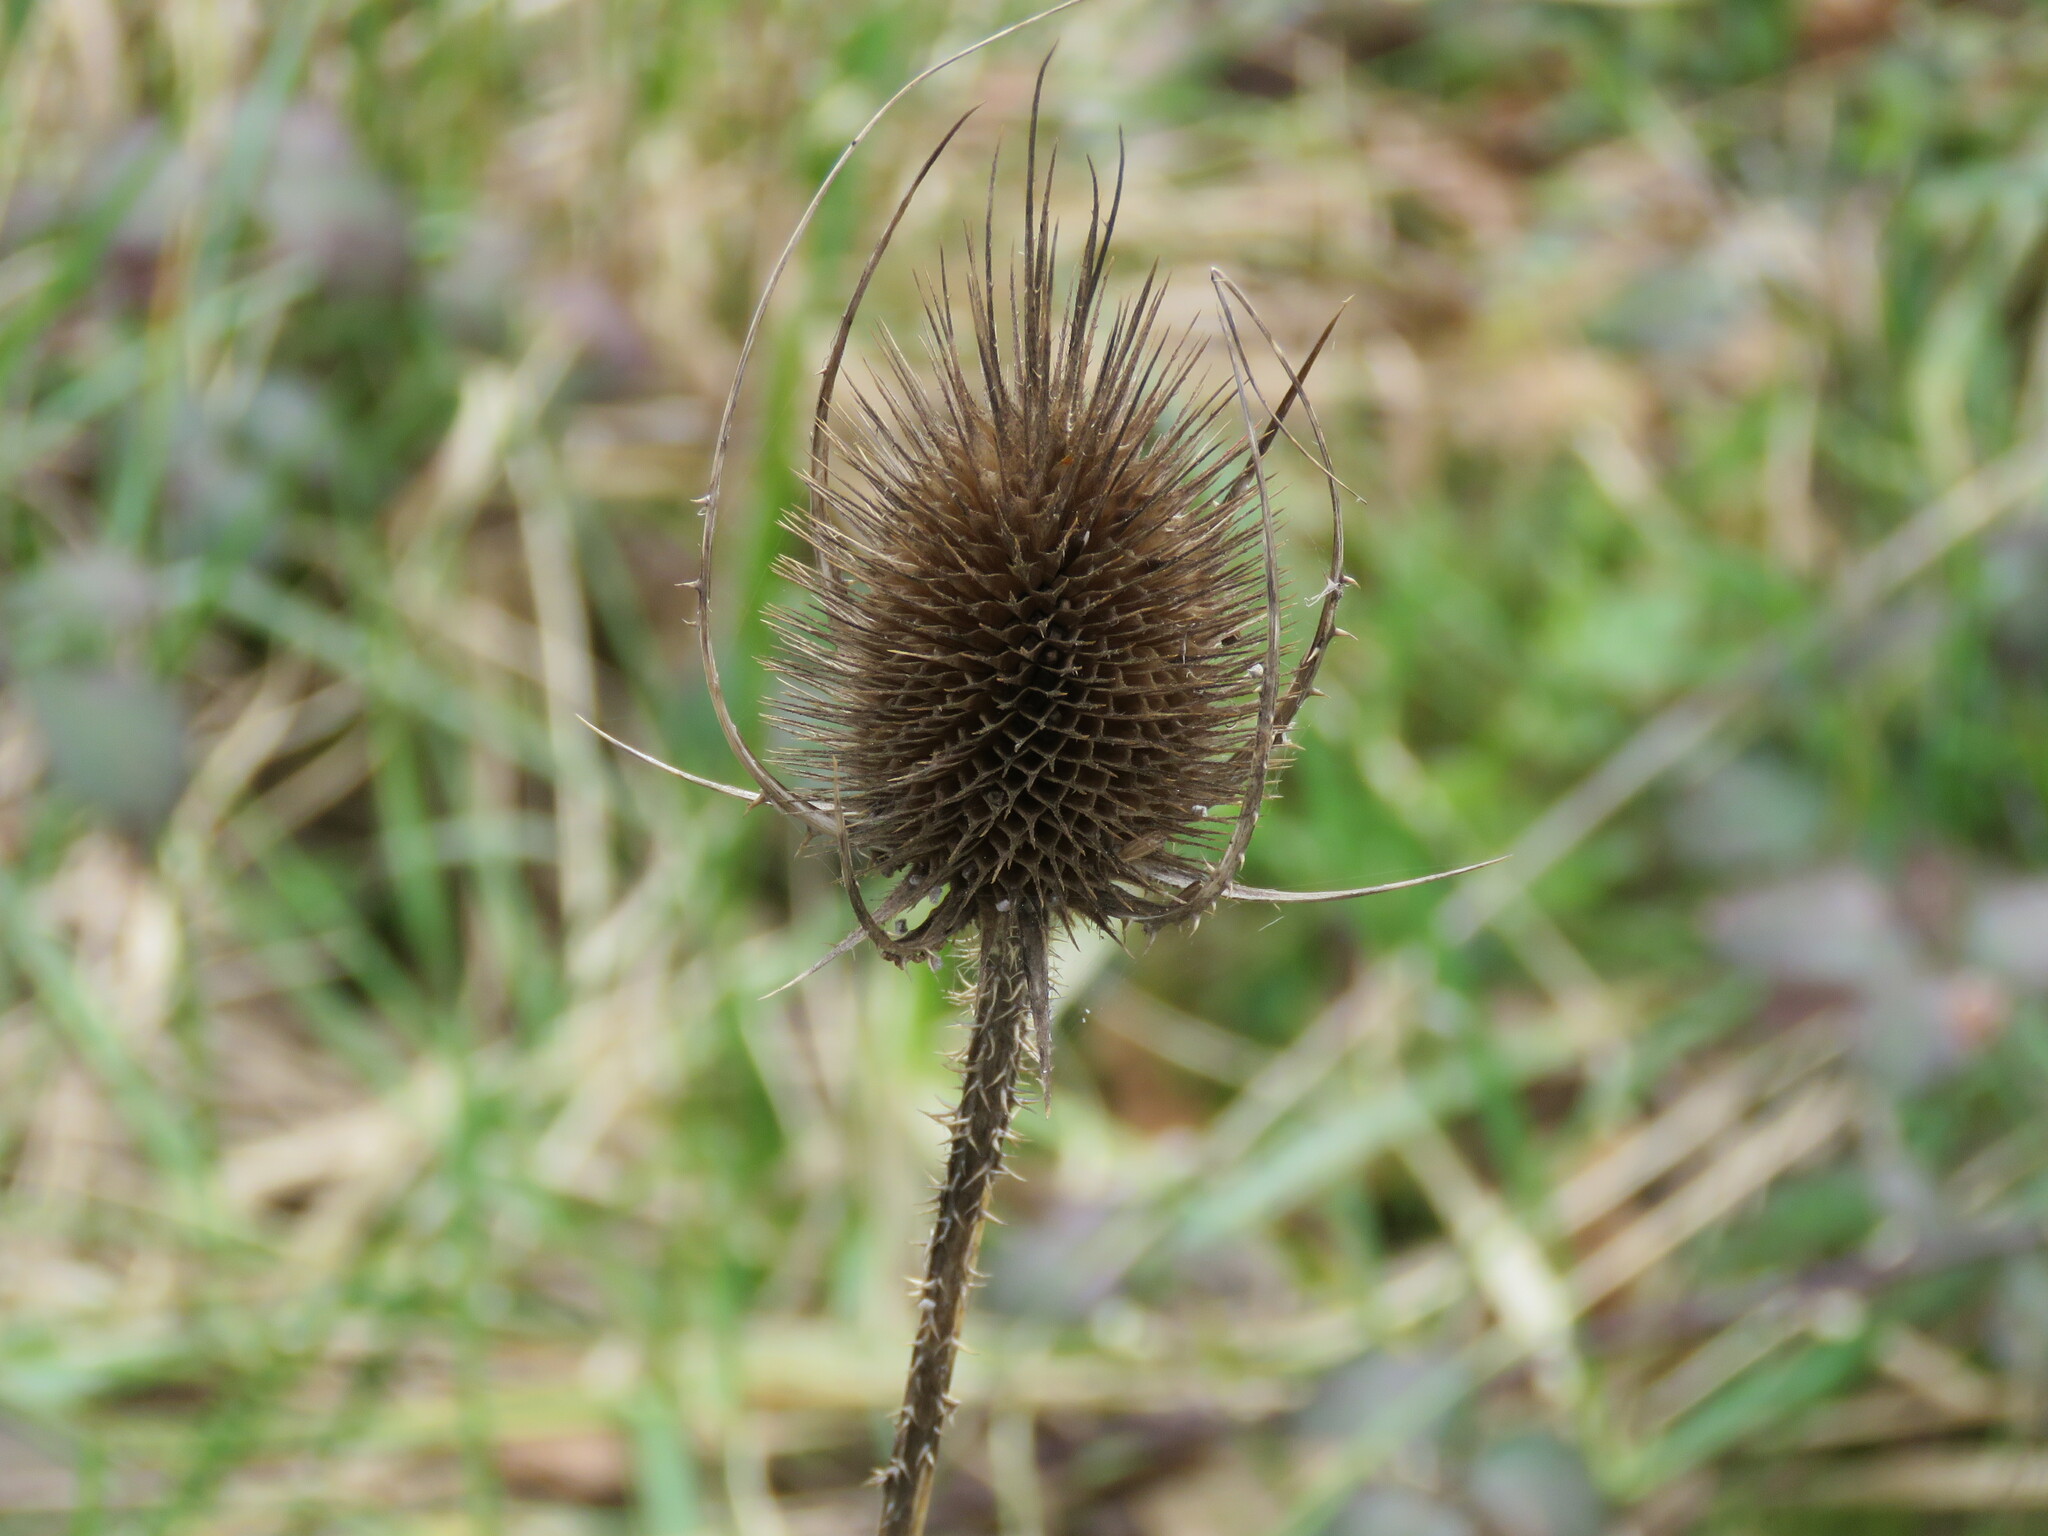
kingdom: Plantae
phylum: Tracheophyta
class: Magnoliopsida
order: Dipsacales
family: Caprifoliaceae
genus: Dipsacus
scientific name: Dipsacus fullonum
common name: Teasel
